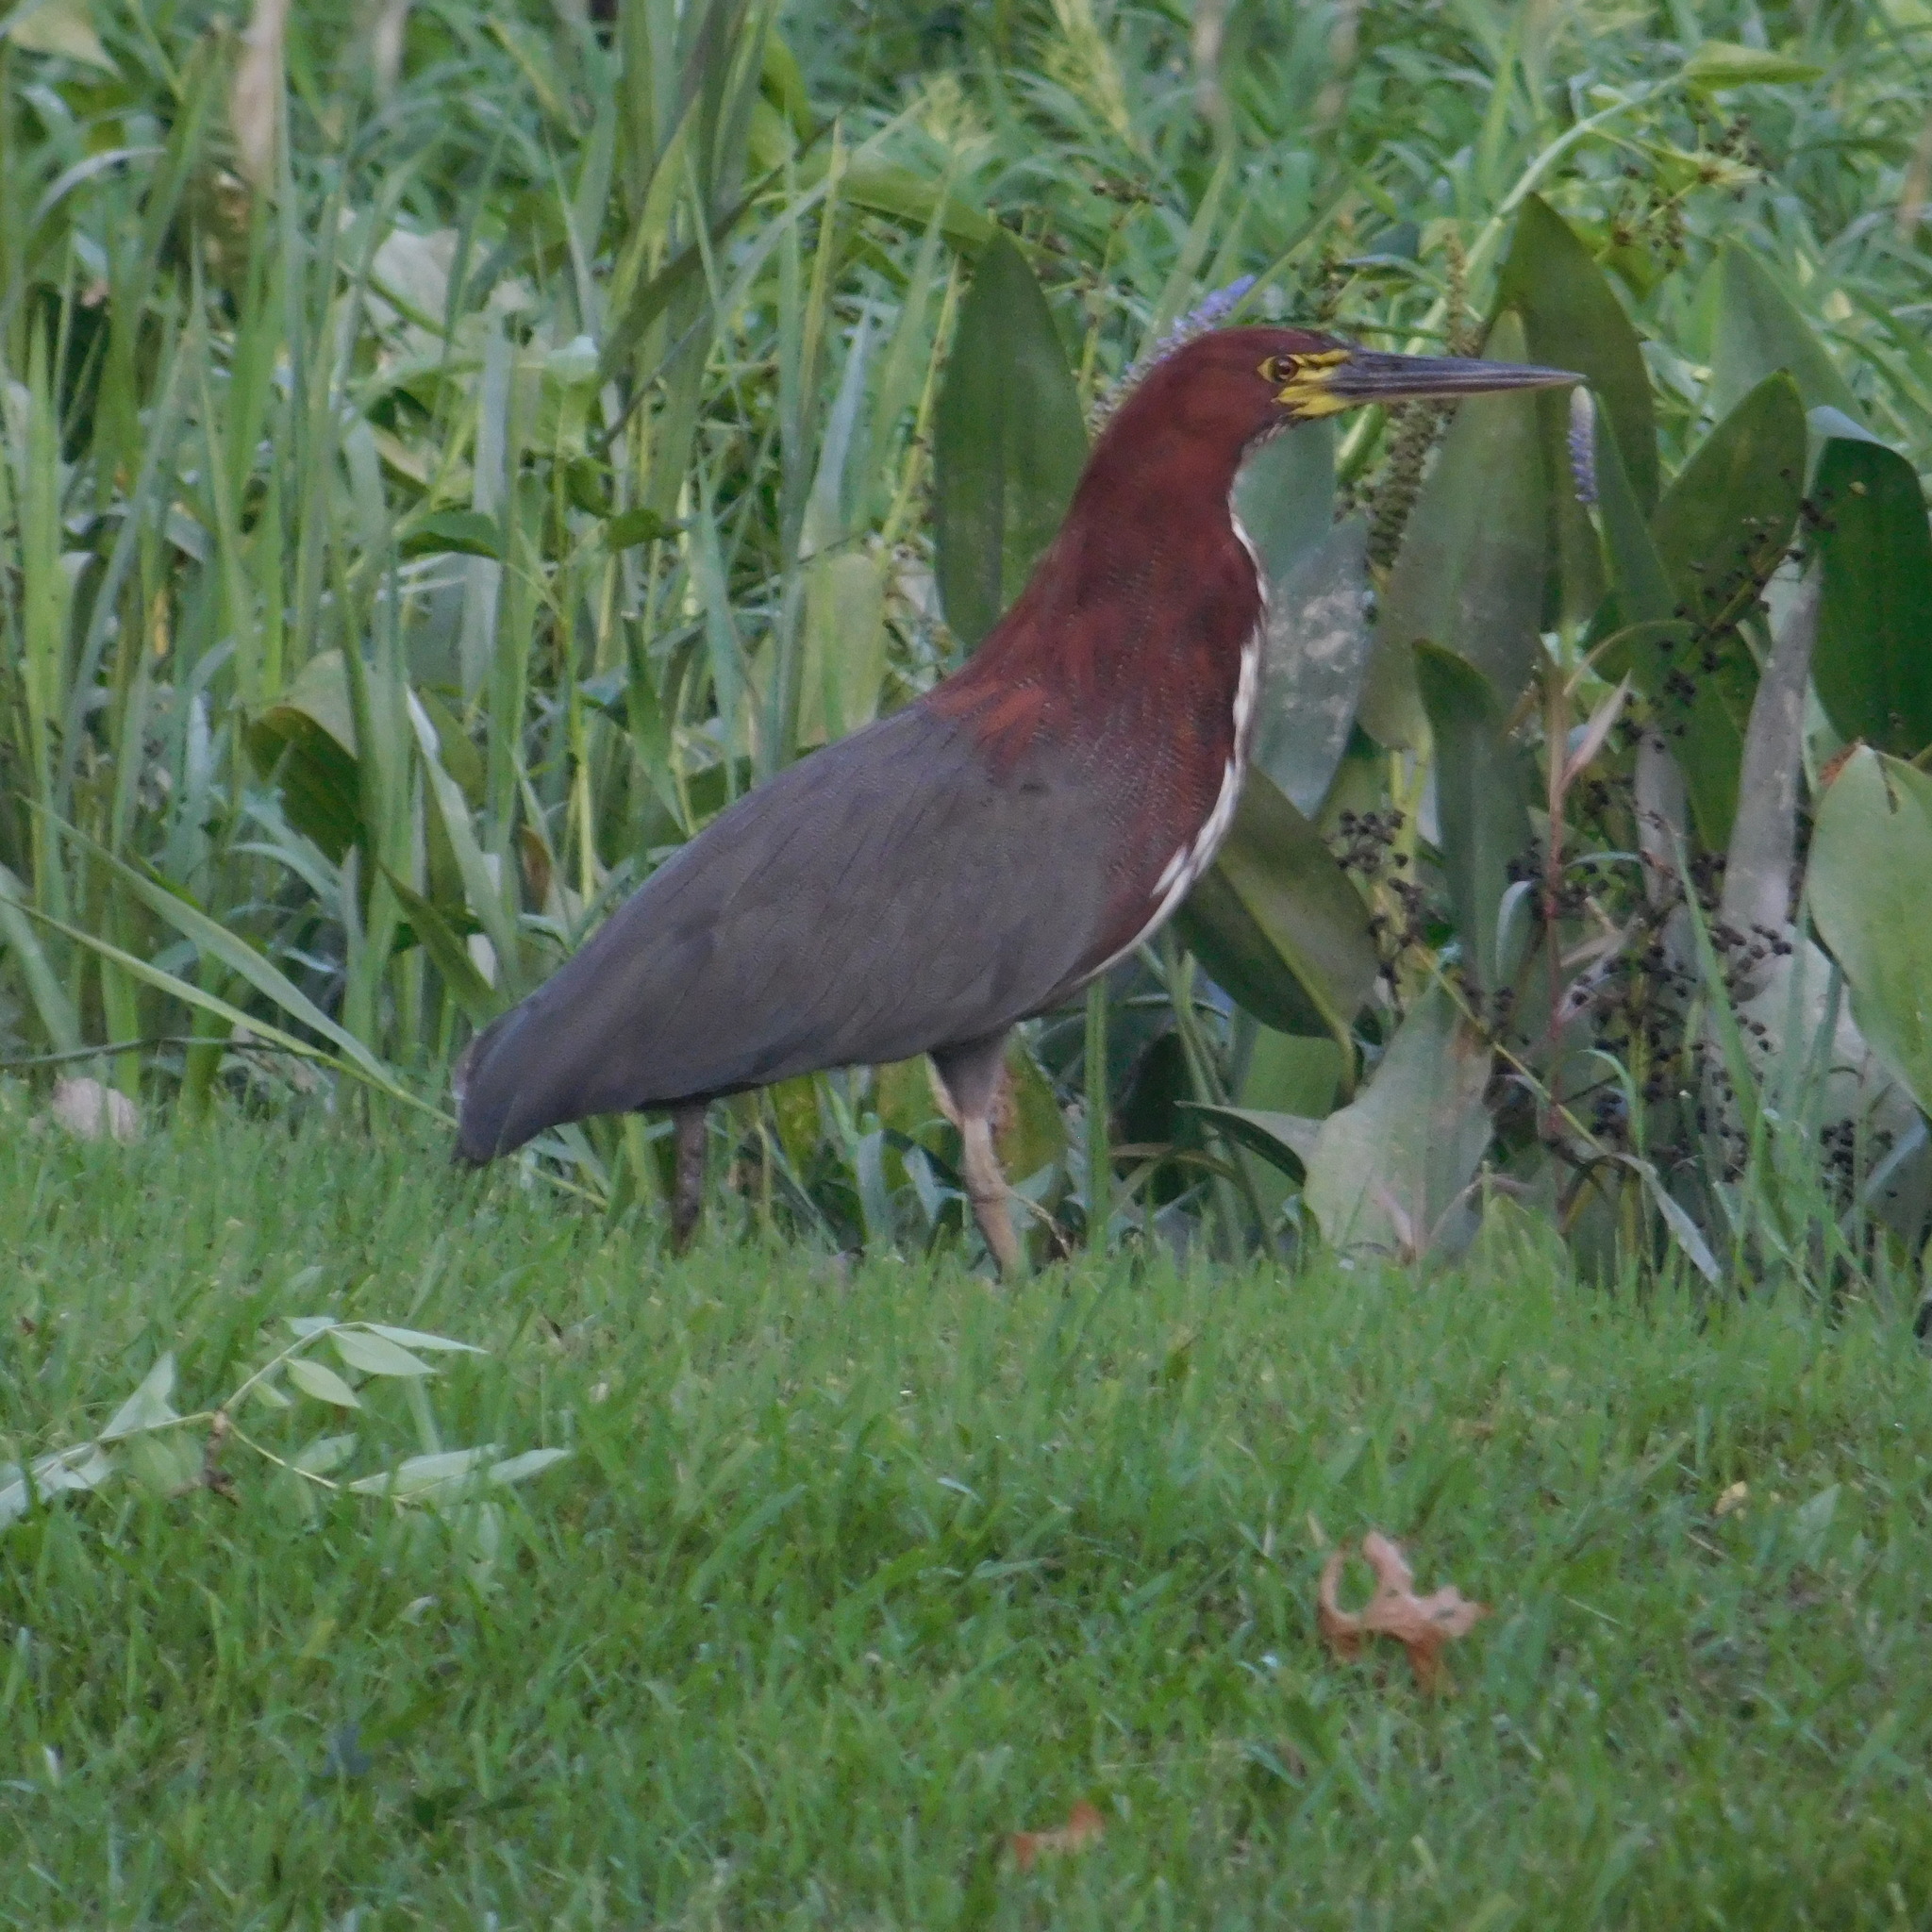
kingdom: Animalia
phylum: Chordata
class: Aves
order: Pelecaniformes
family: Ardeidae
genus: Tigrisoma
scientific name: Tigrisoma lineatum
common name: Rufescent tiger-heron
